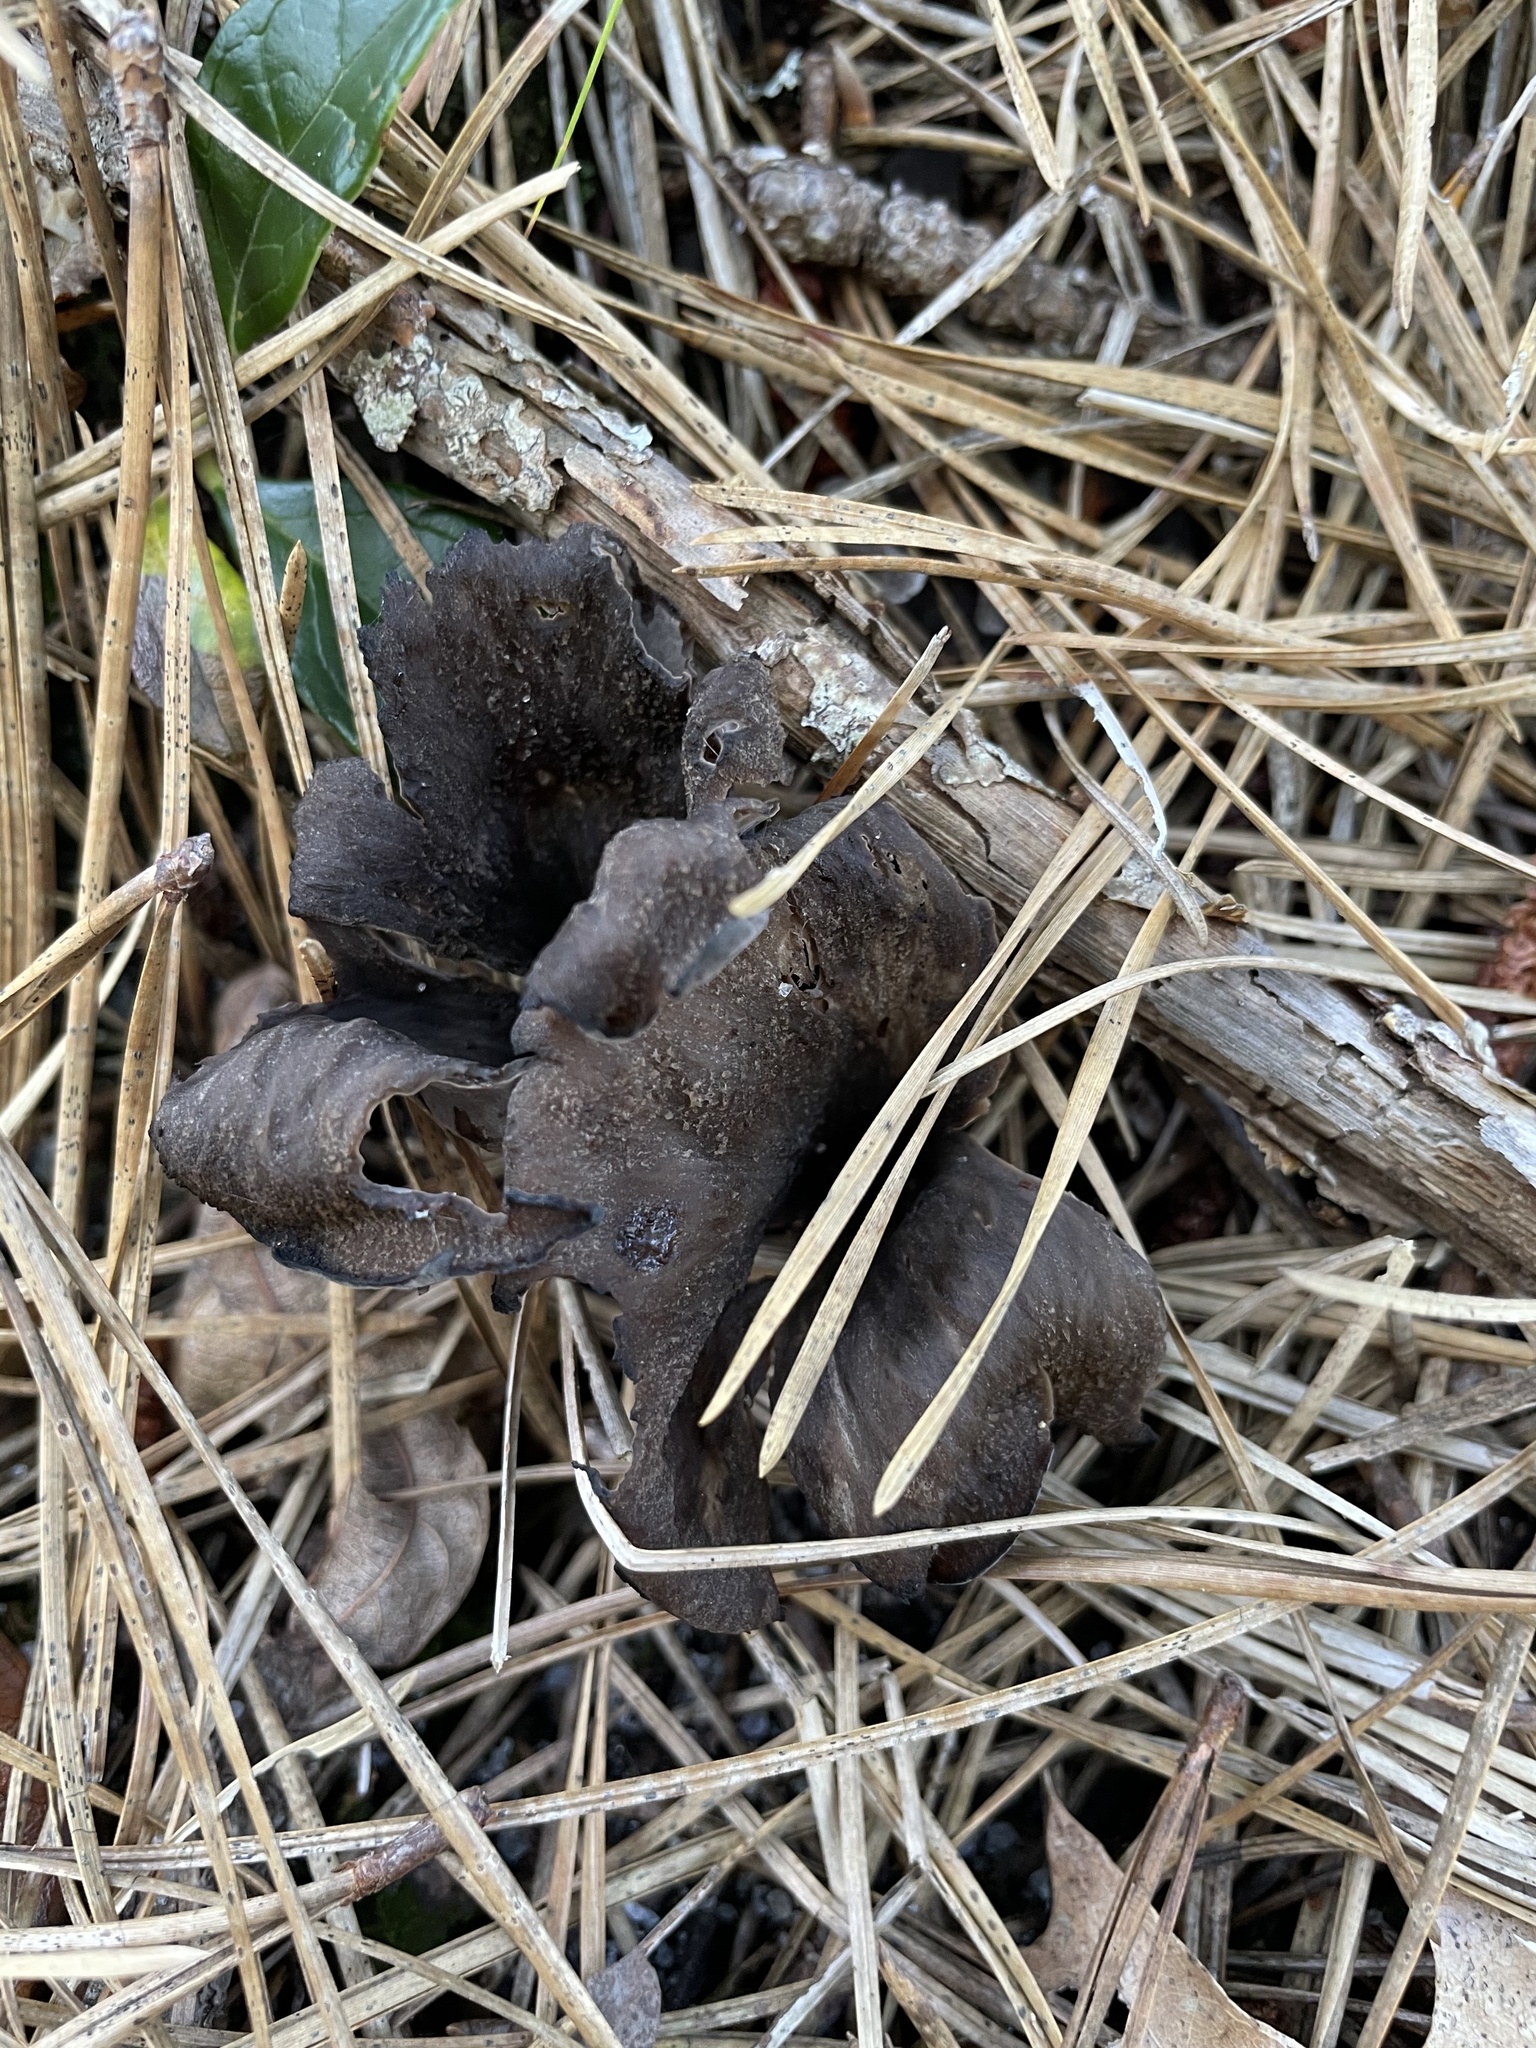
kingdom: Fungi
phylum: Basidiomycota
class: Agaricomycetes
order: Cantharellales
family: Hydnaceae
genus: Craterellus
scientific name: Craterellus cornucopioides
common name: Horn of plenty
